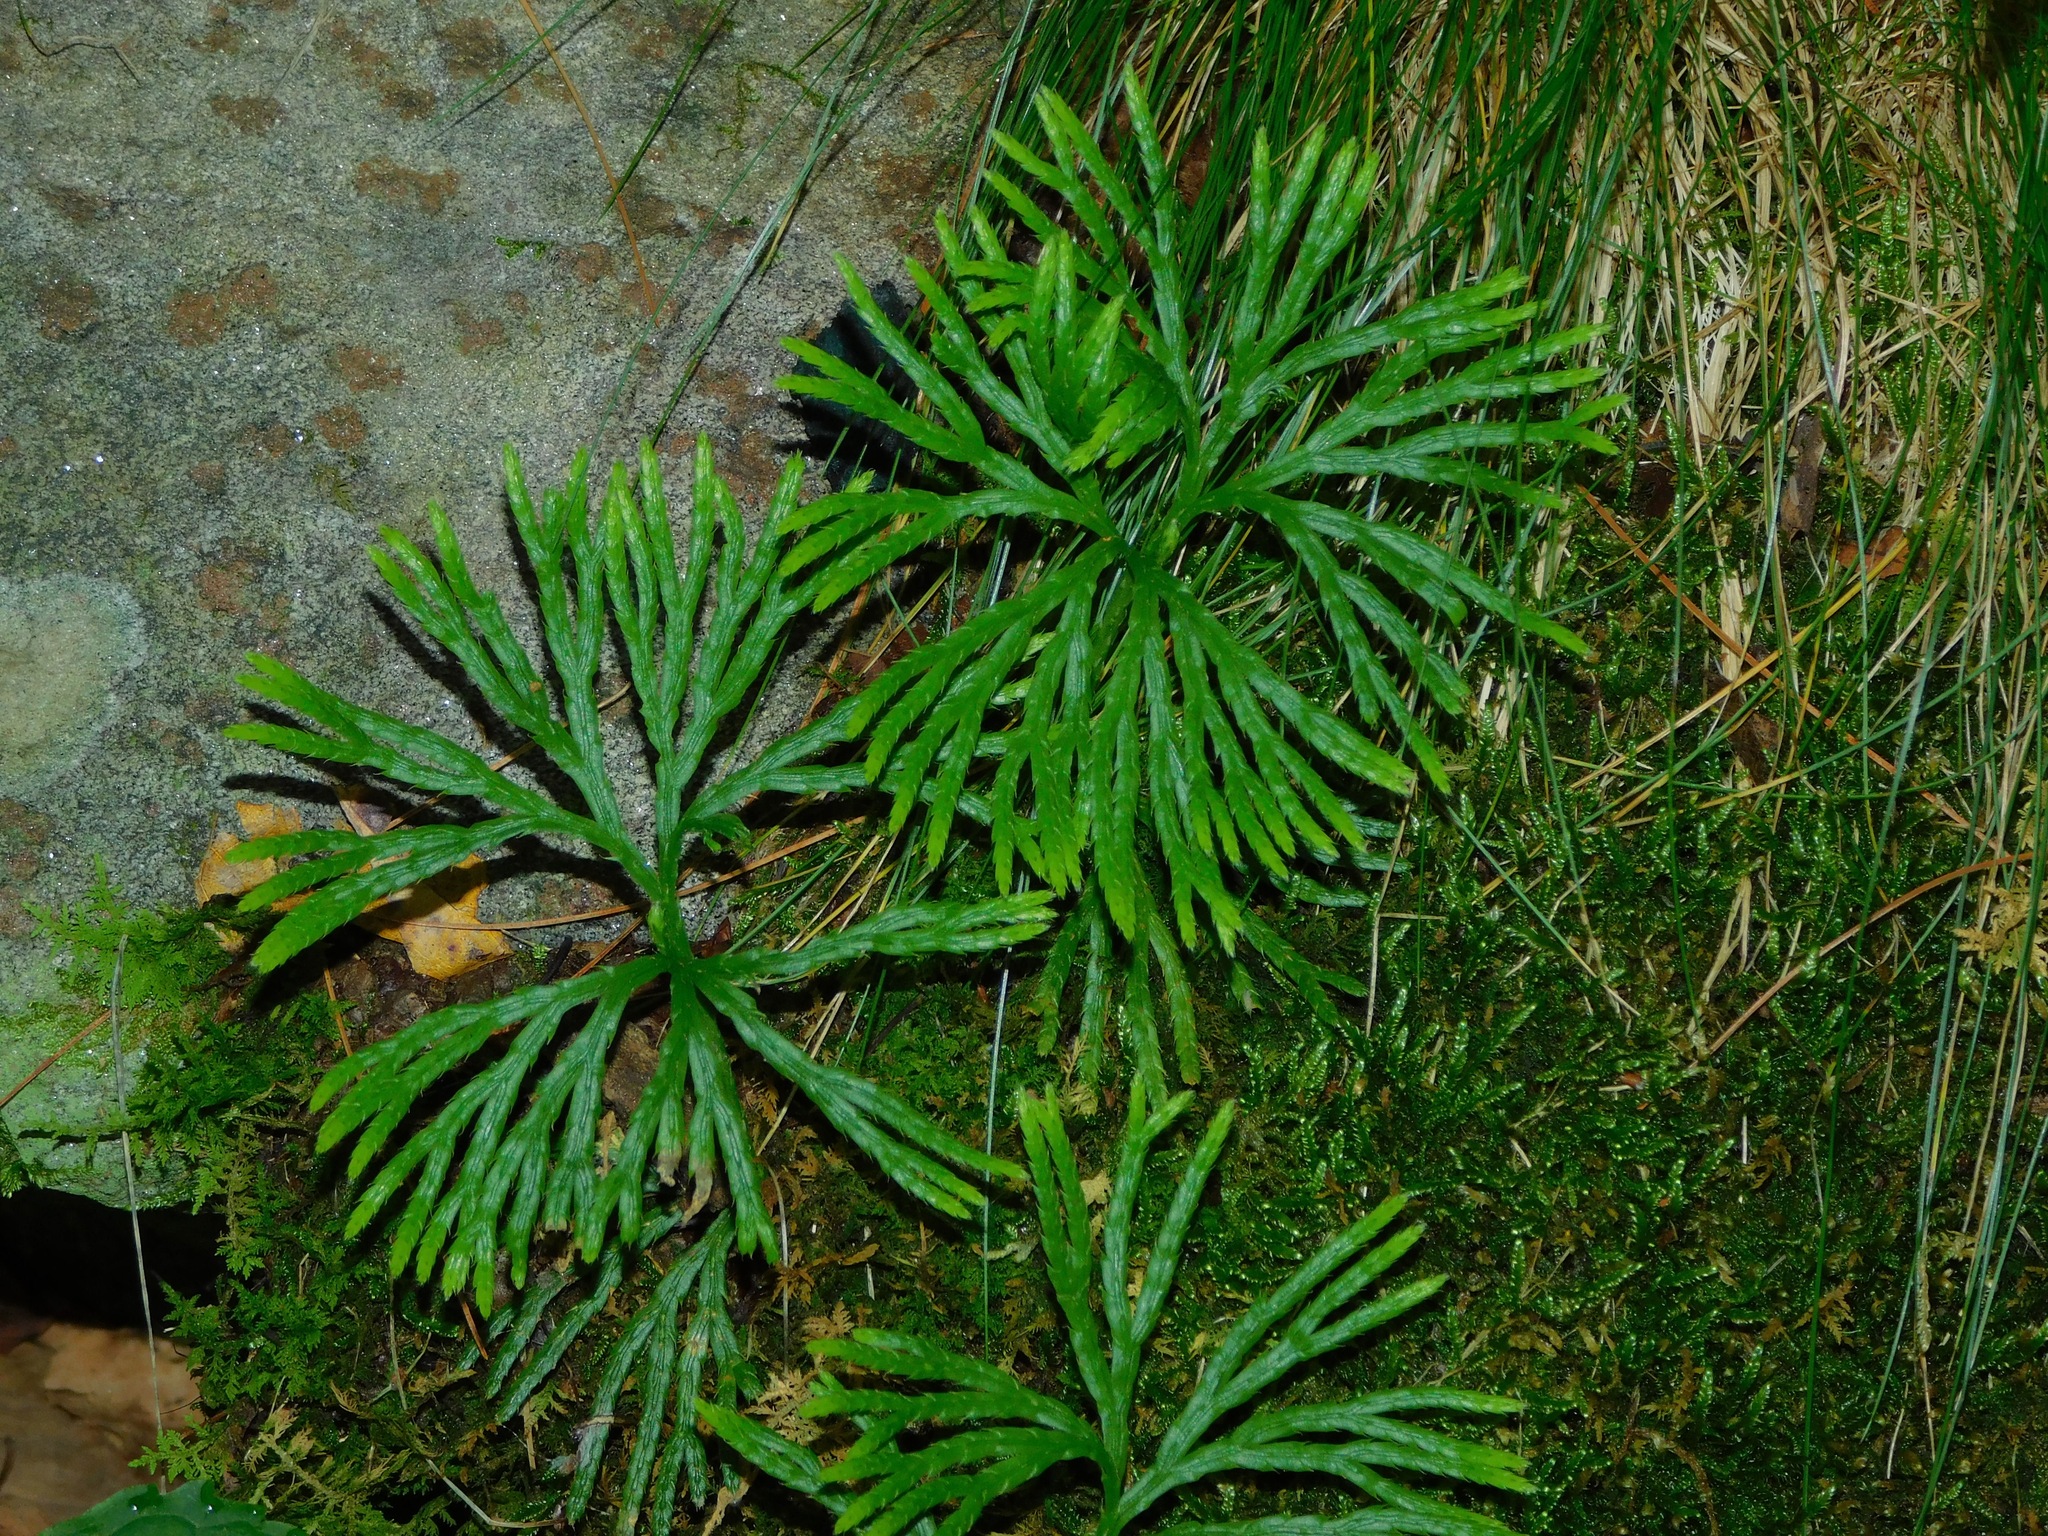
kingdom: Plantae
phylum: Tracheophyta
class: Lycopodiopsida
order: Lycopodiales
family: Lycopodiaceae
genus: Diphasiastrum
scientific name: Diphasiastrum digitatum
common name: Southern running-pine
